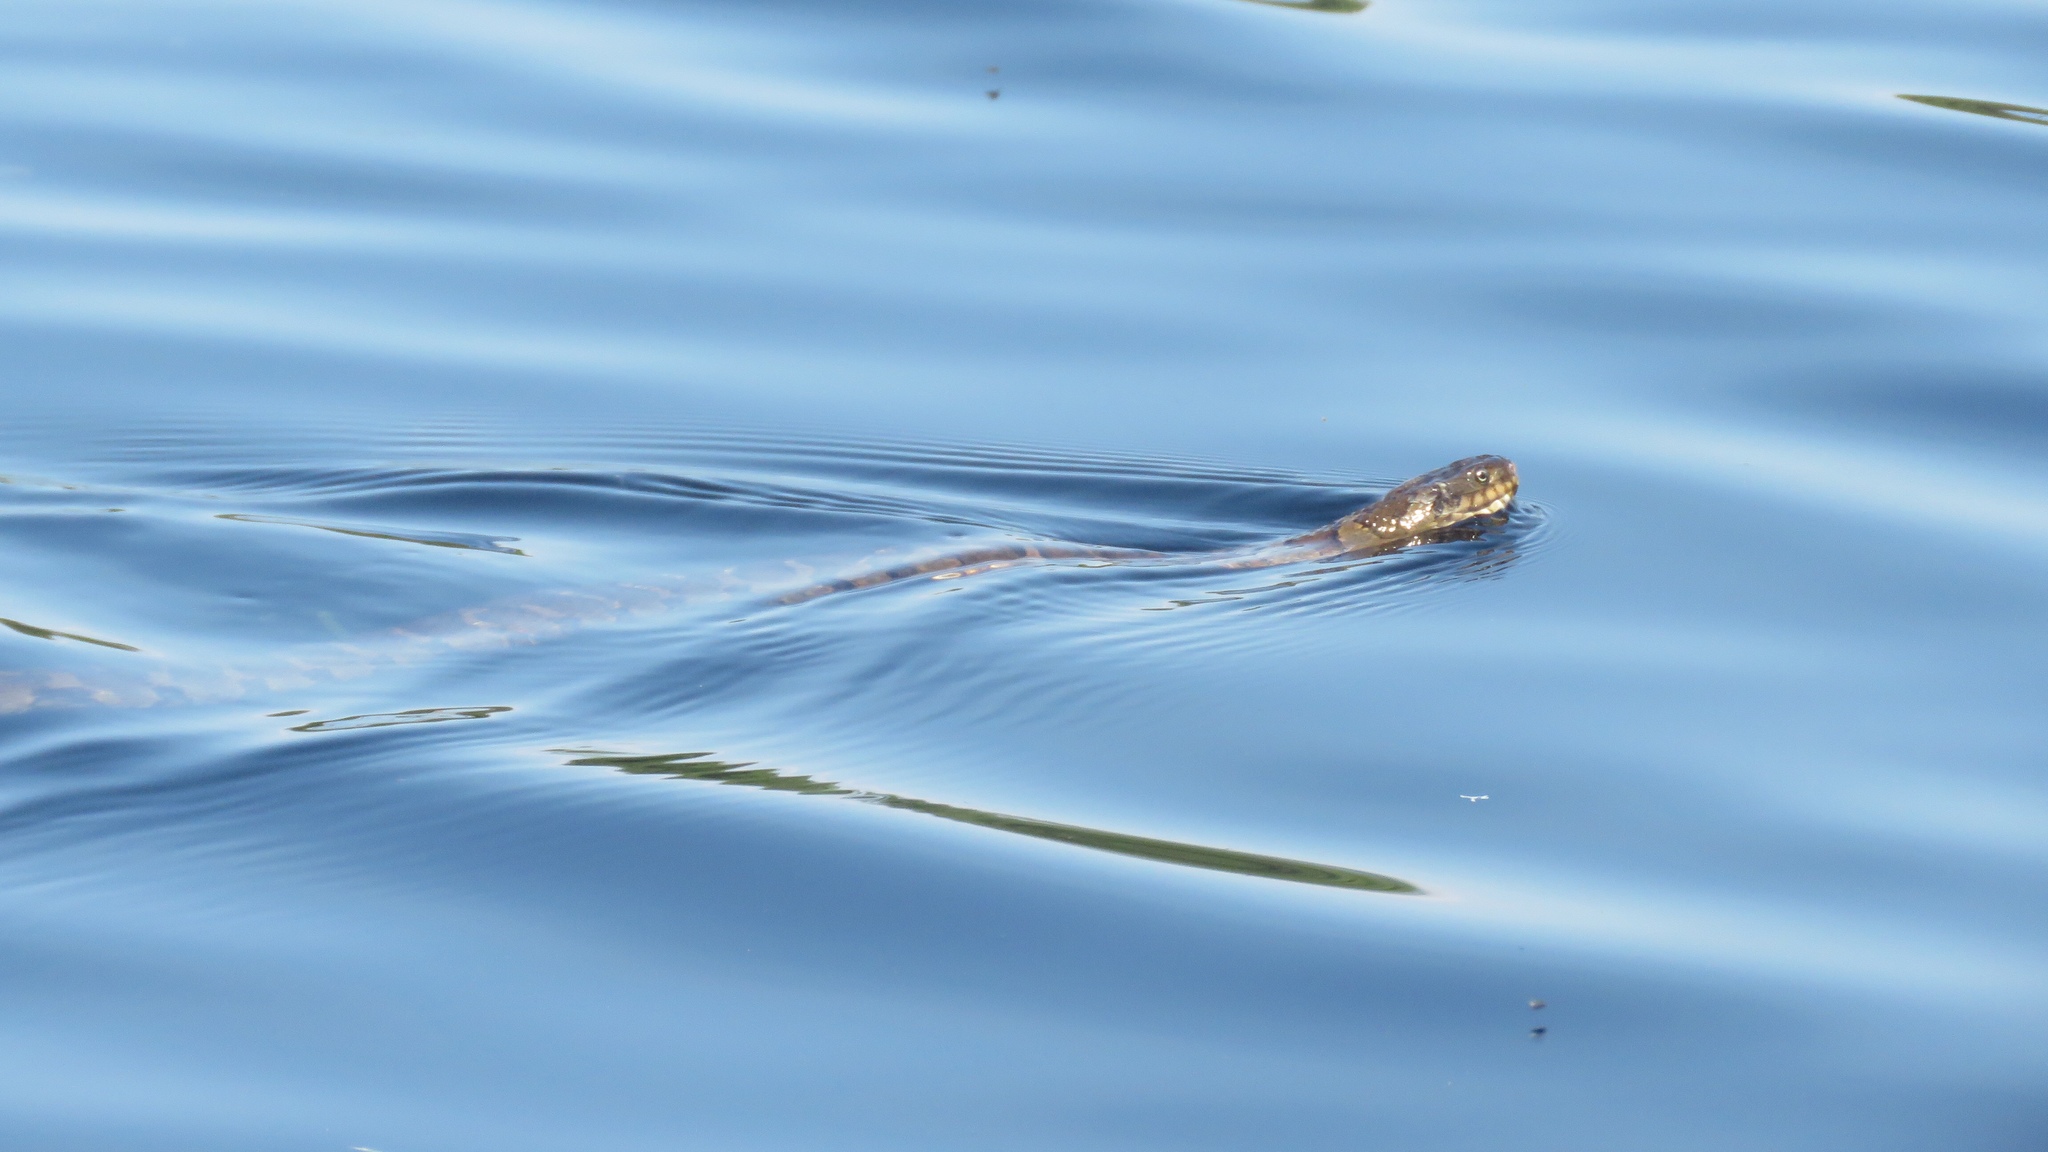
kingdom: Animalia
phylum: Chordata
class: Squamata
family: Colubridae
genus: Nerodia
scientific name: Nerodia sipedon
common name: Northern water snake
